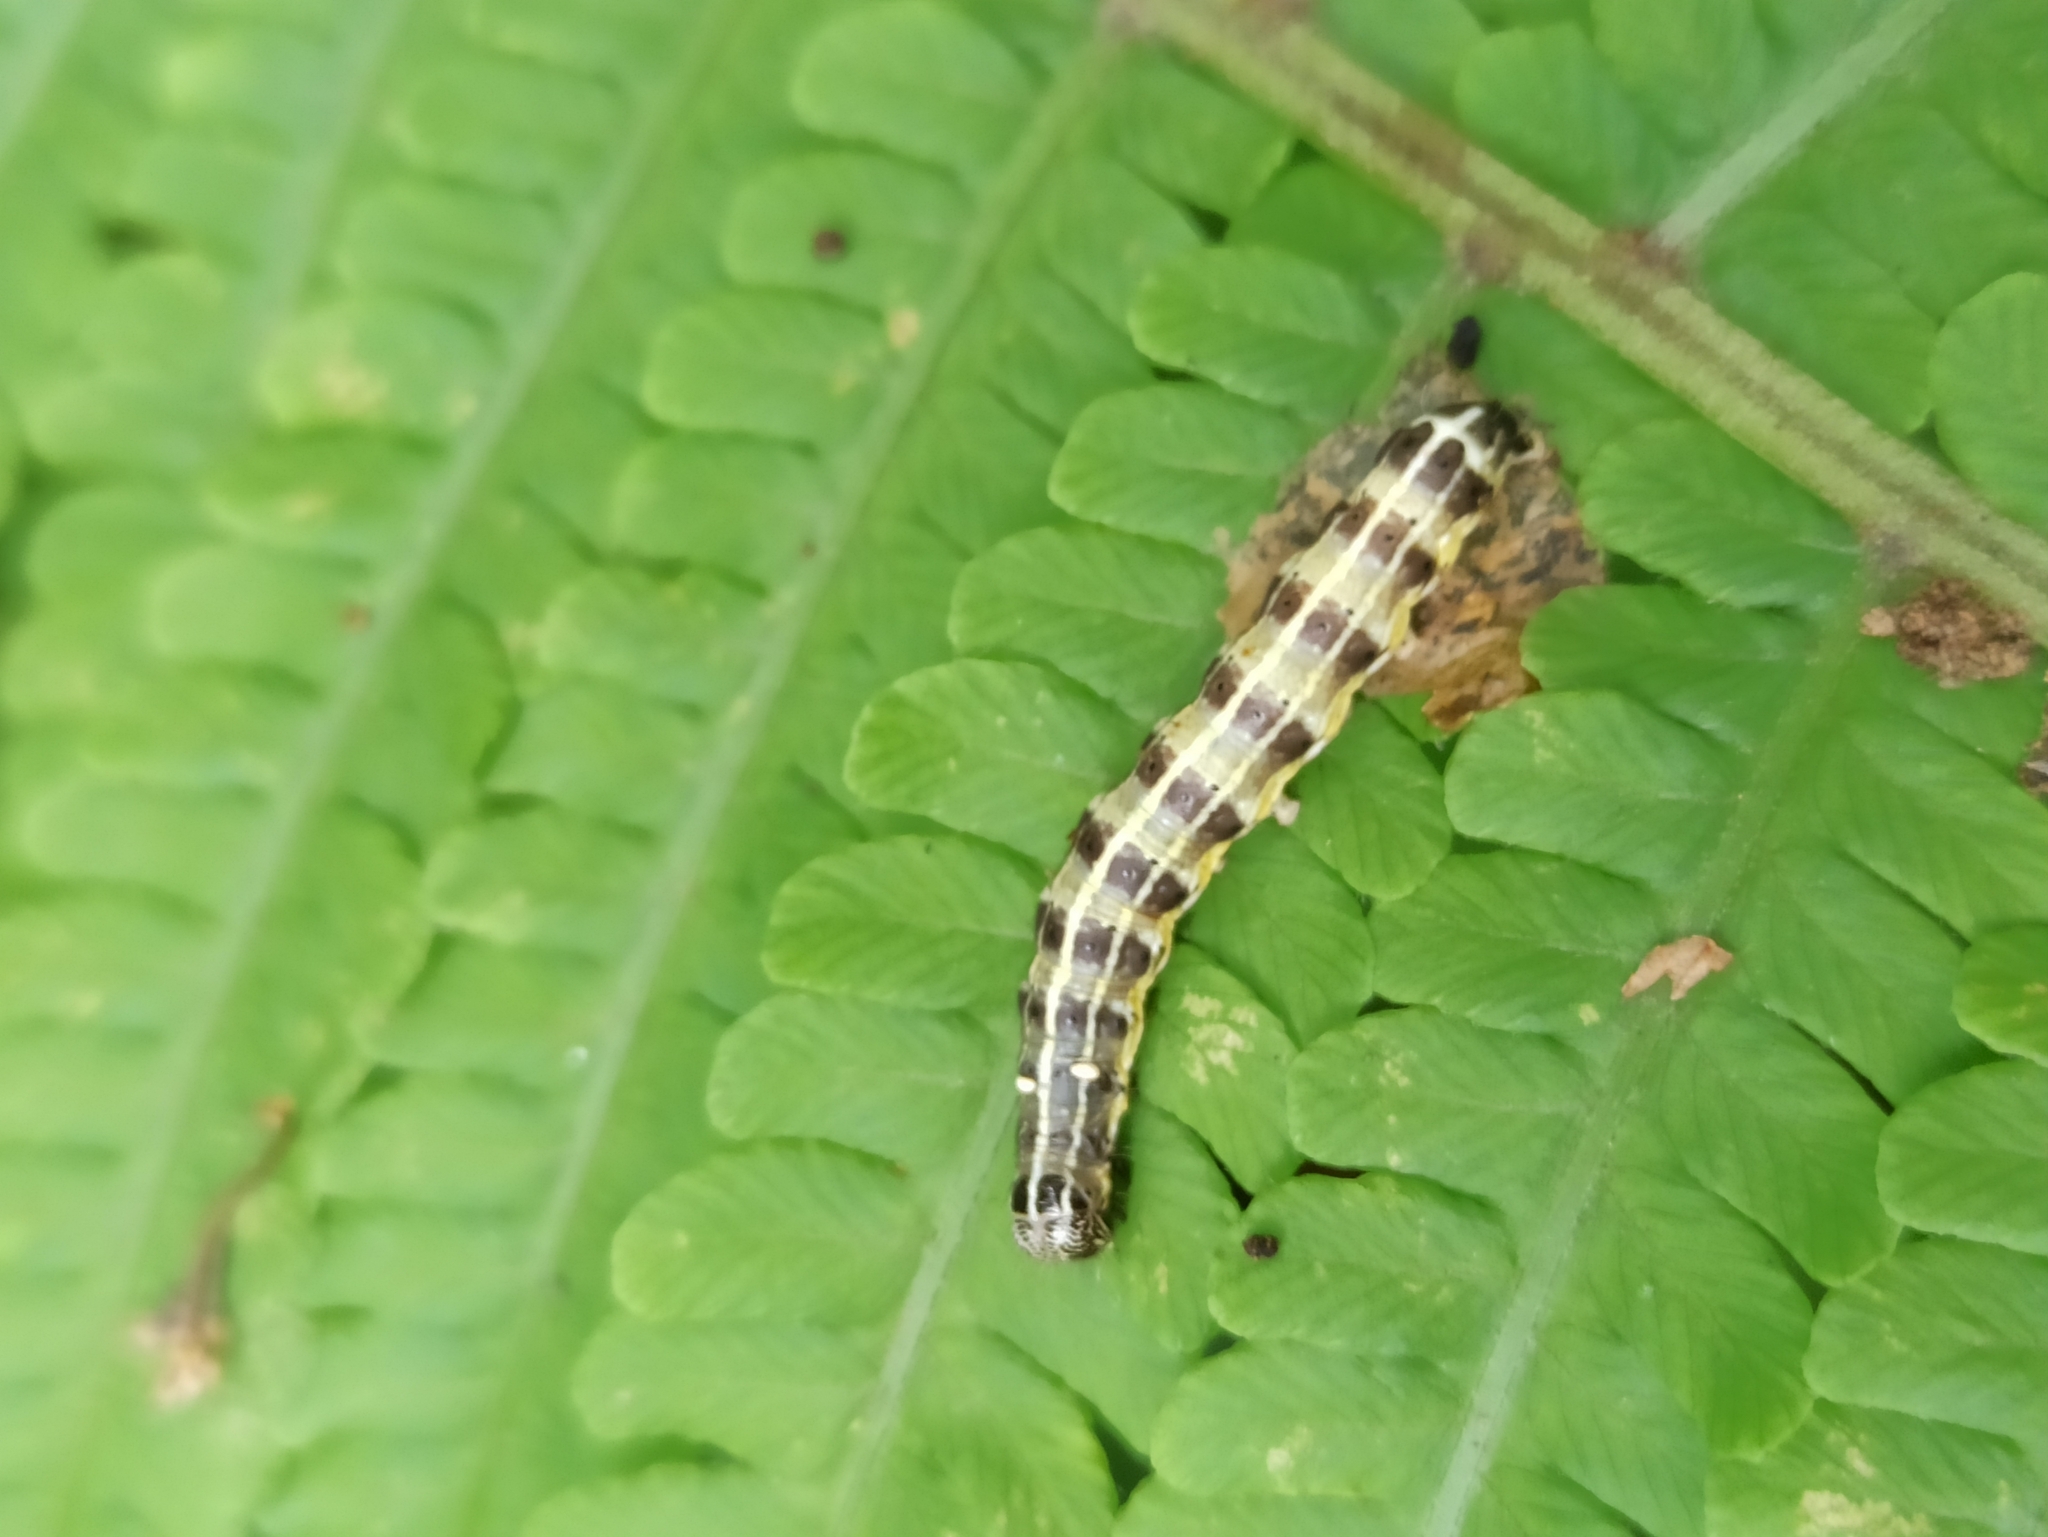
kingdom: Animalia
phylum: Arthropoda
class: Insecta
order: Lepidoptera
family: Noctuidae
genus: Orthosia
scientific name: Orthosia cruda
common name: Small quaker
